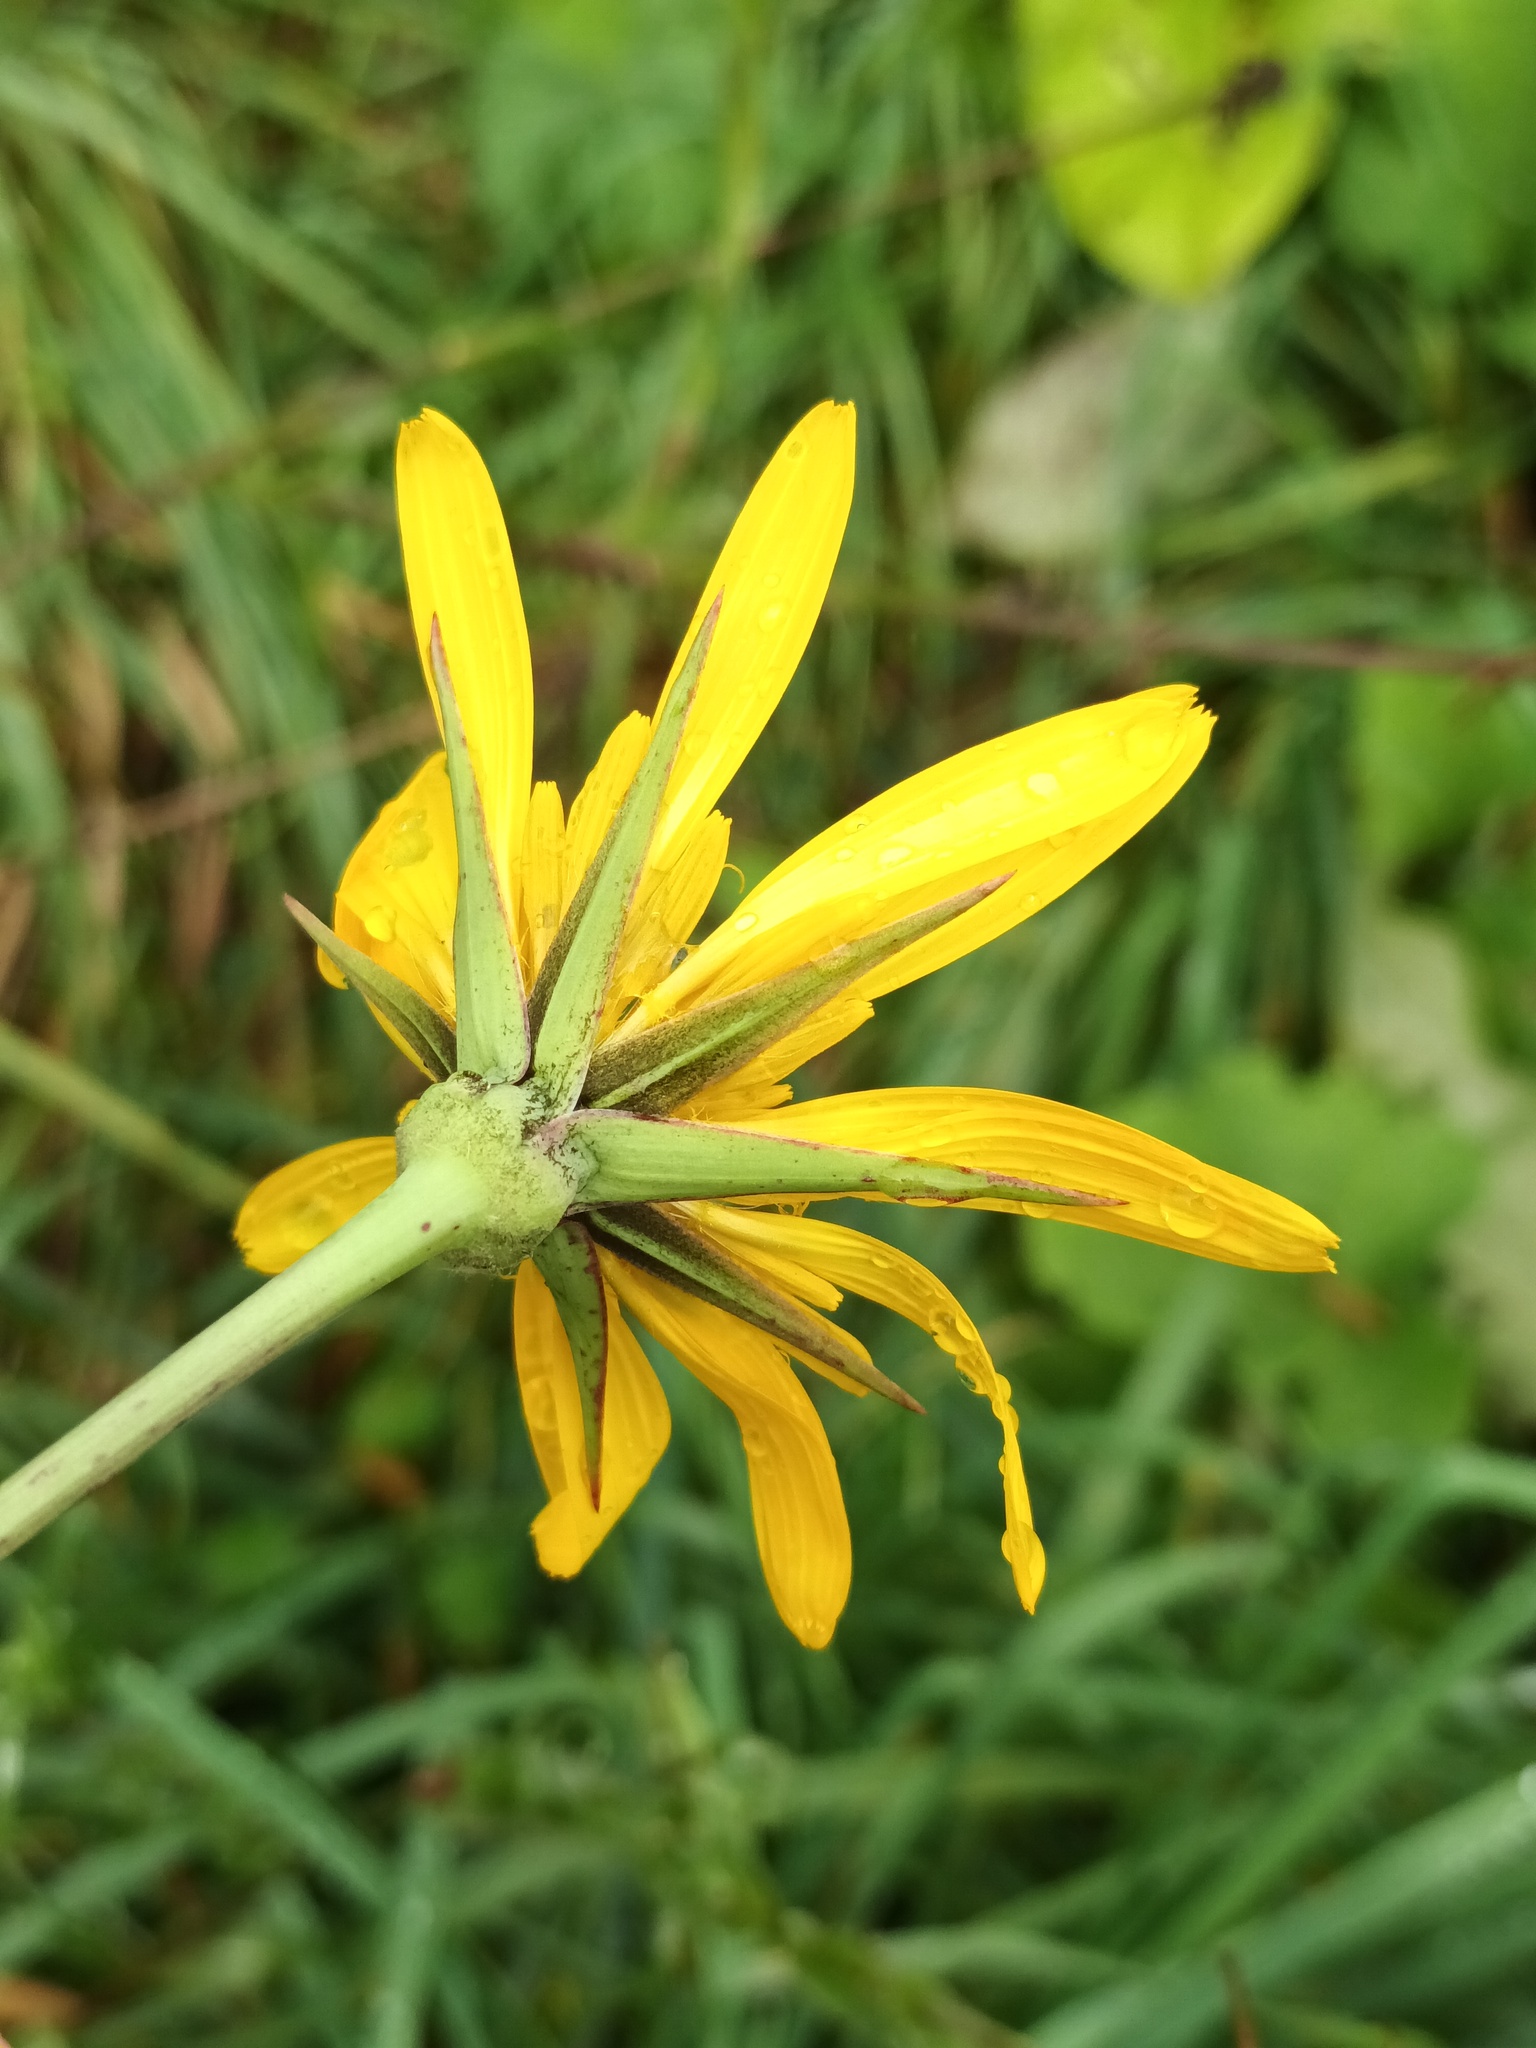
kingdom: Plantae
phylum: Tracheophyta
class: Magnoliopsida
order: Asterales
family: Asteraceae
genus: Tragopogon
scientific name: Tragopogon orientalis
